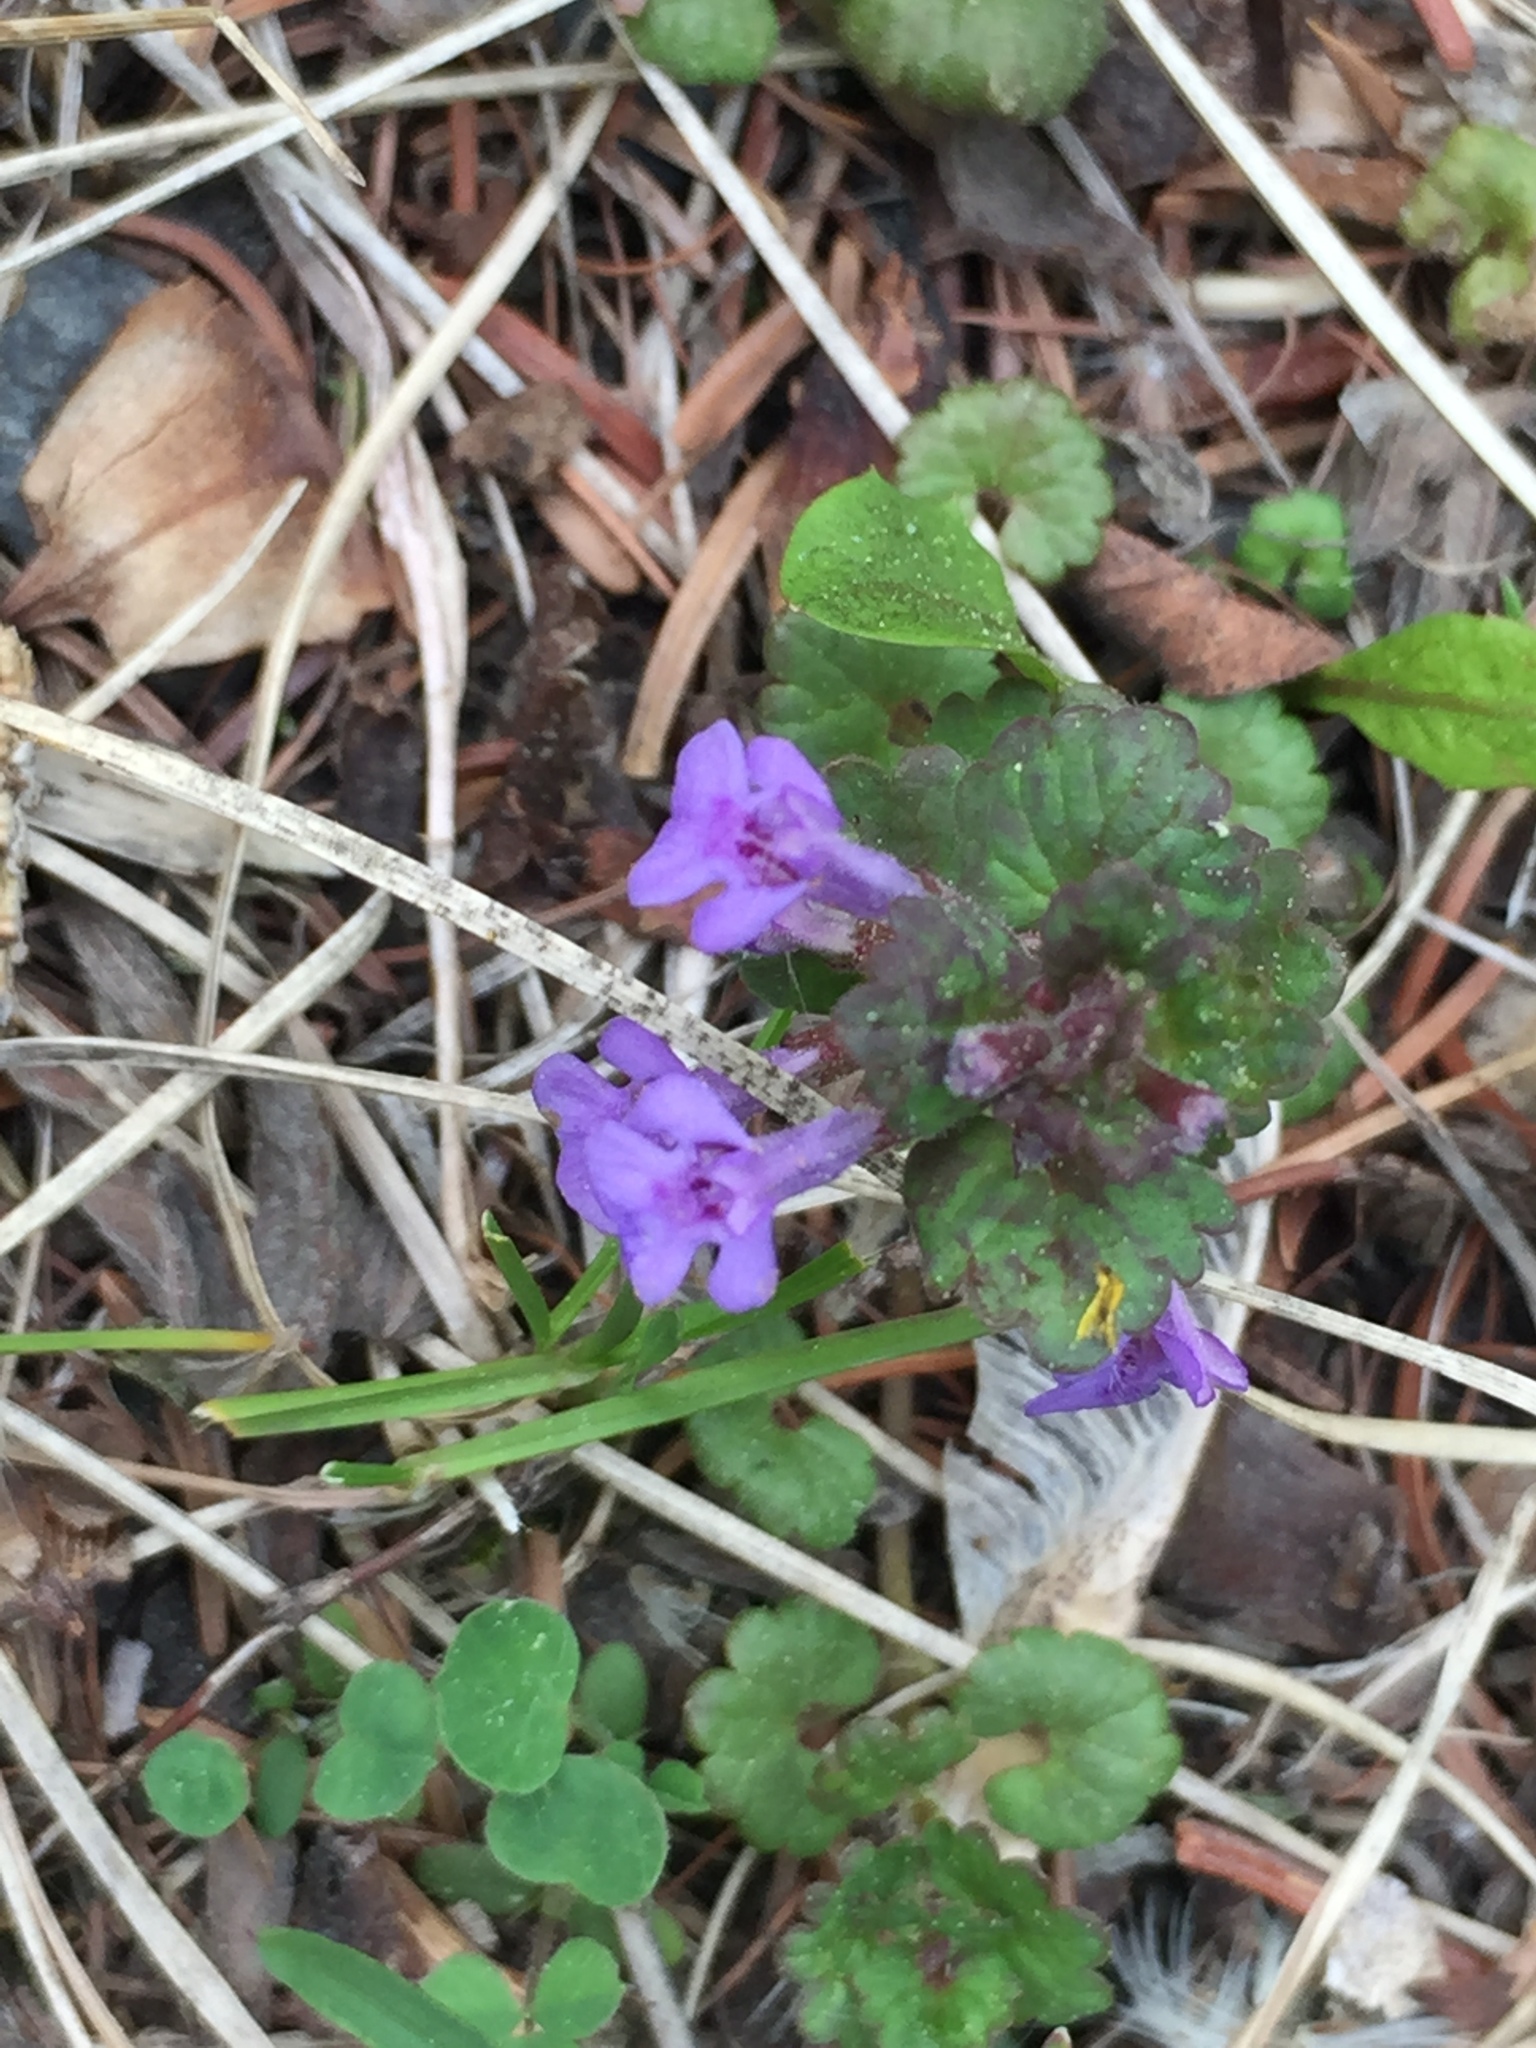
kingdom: Plantae
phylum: Tracheophyta
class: Magnoliopsida
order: Lamiales
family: Lamiaceae
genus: Glechoma
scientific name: Glechoma hederacea
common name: Ground ivy
